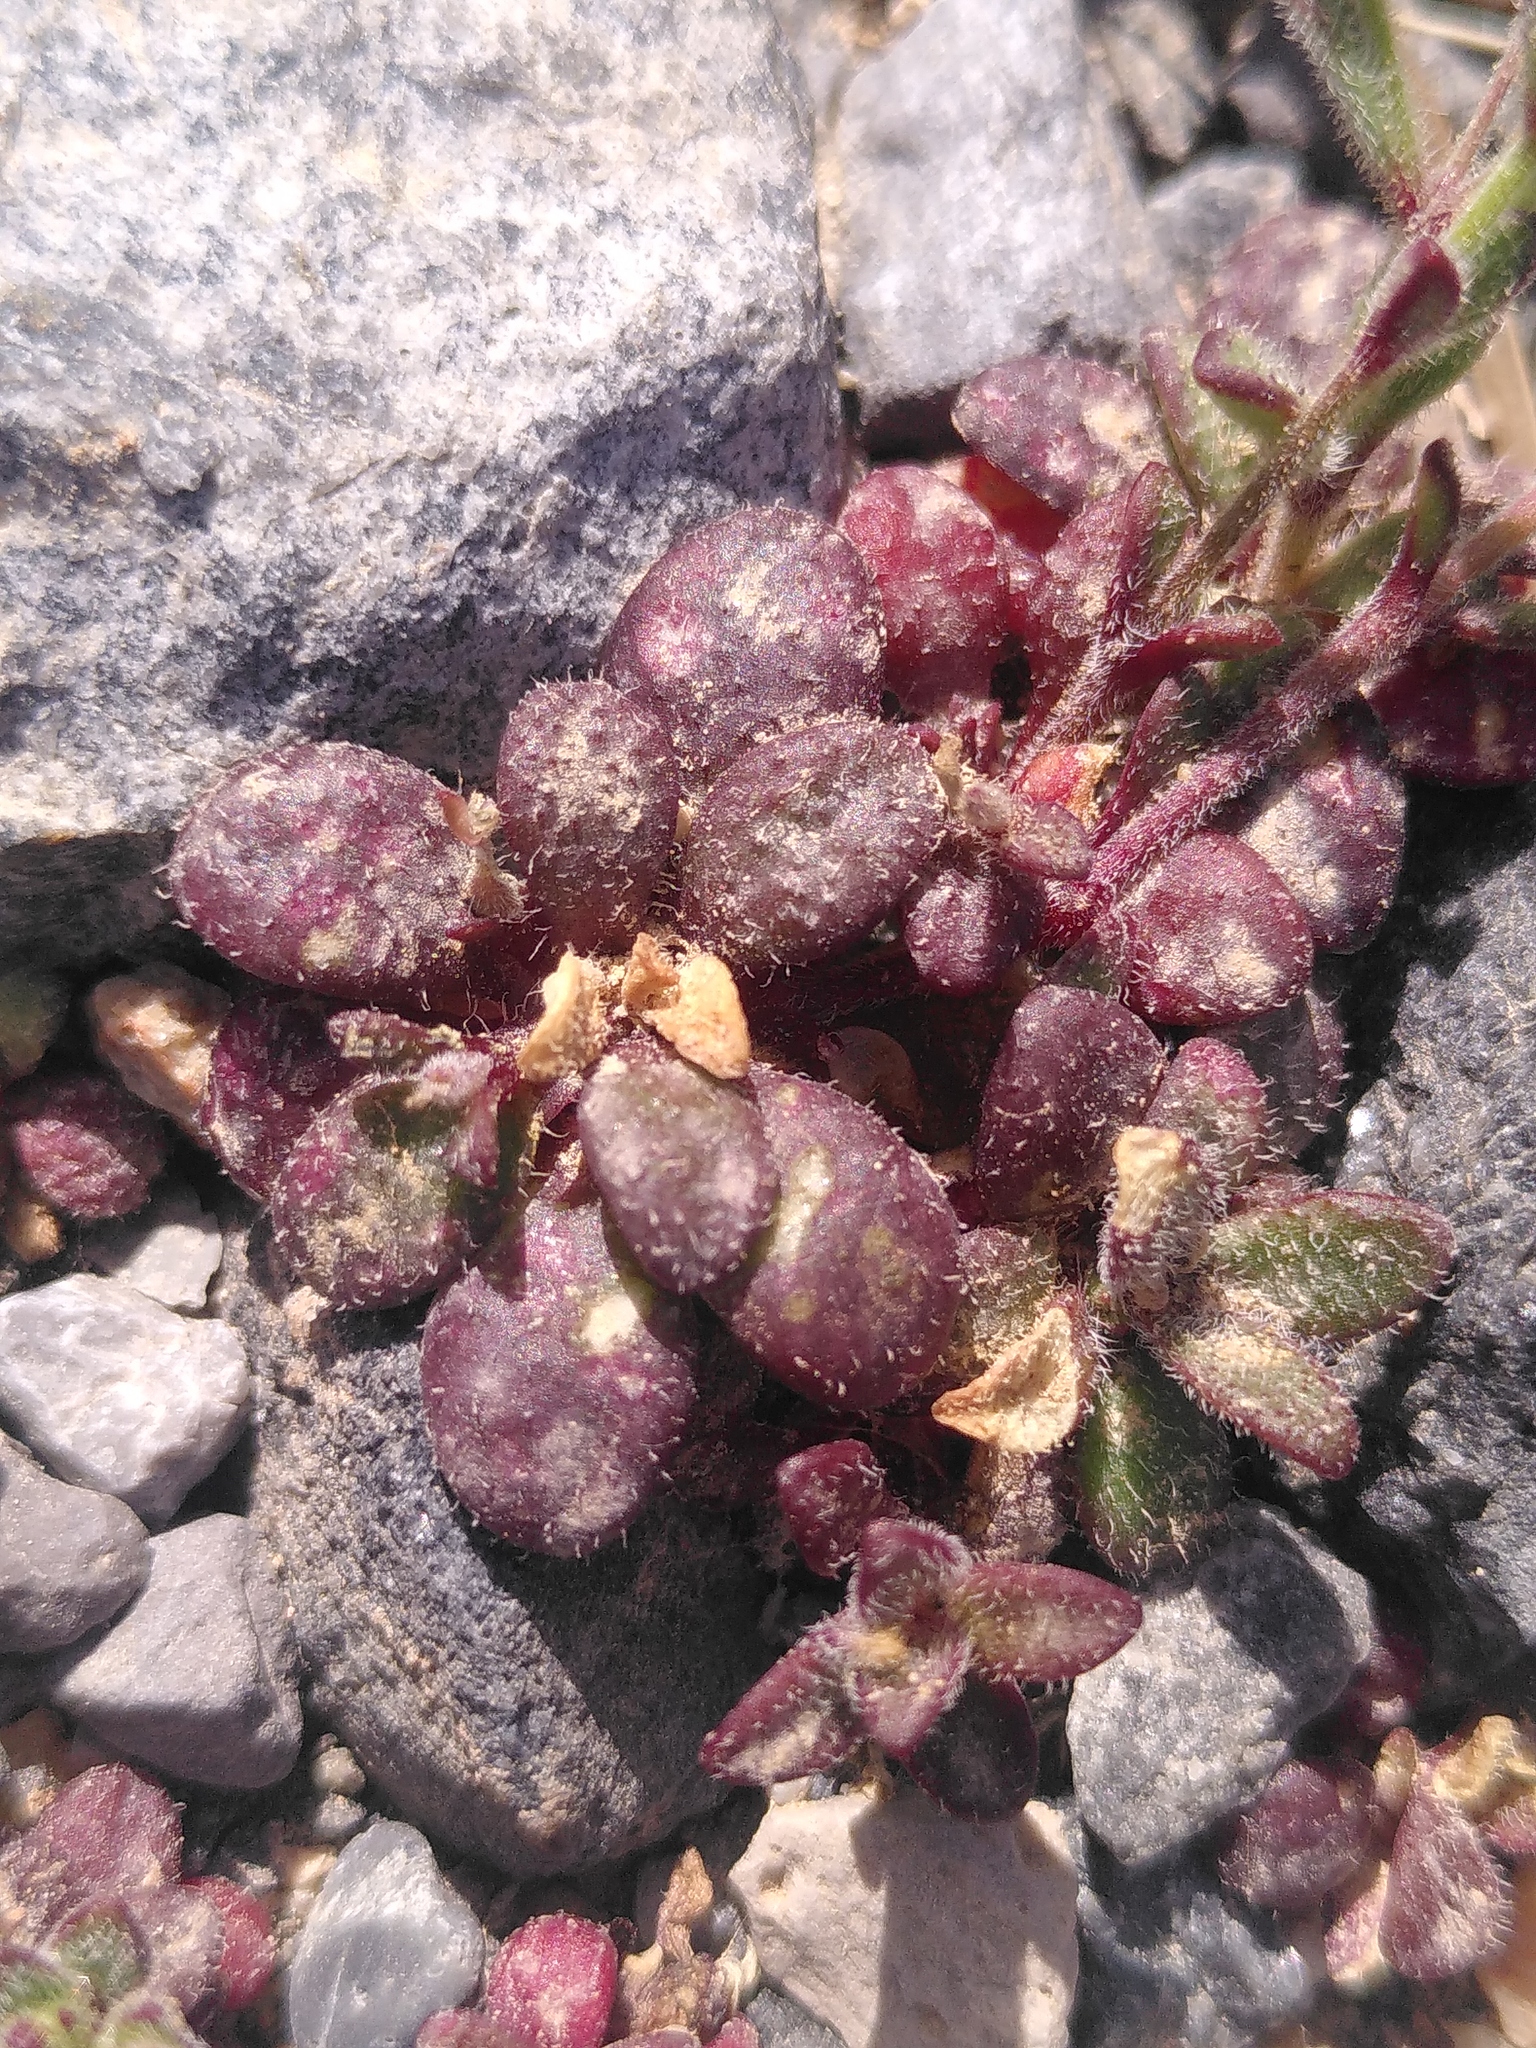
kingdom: Plantae
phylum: Tracheophyta
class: Magnoliopsida
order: Caryophyllales
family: Caryophyllaceae
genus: Silene
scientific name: Silene sedoides
